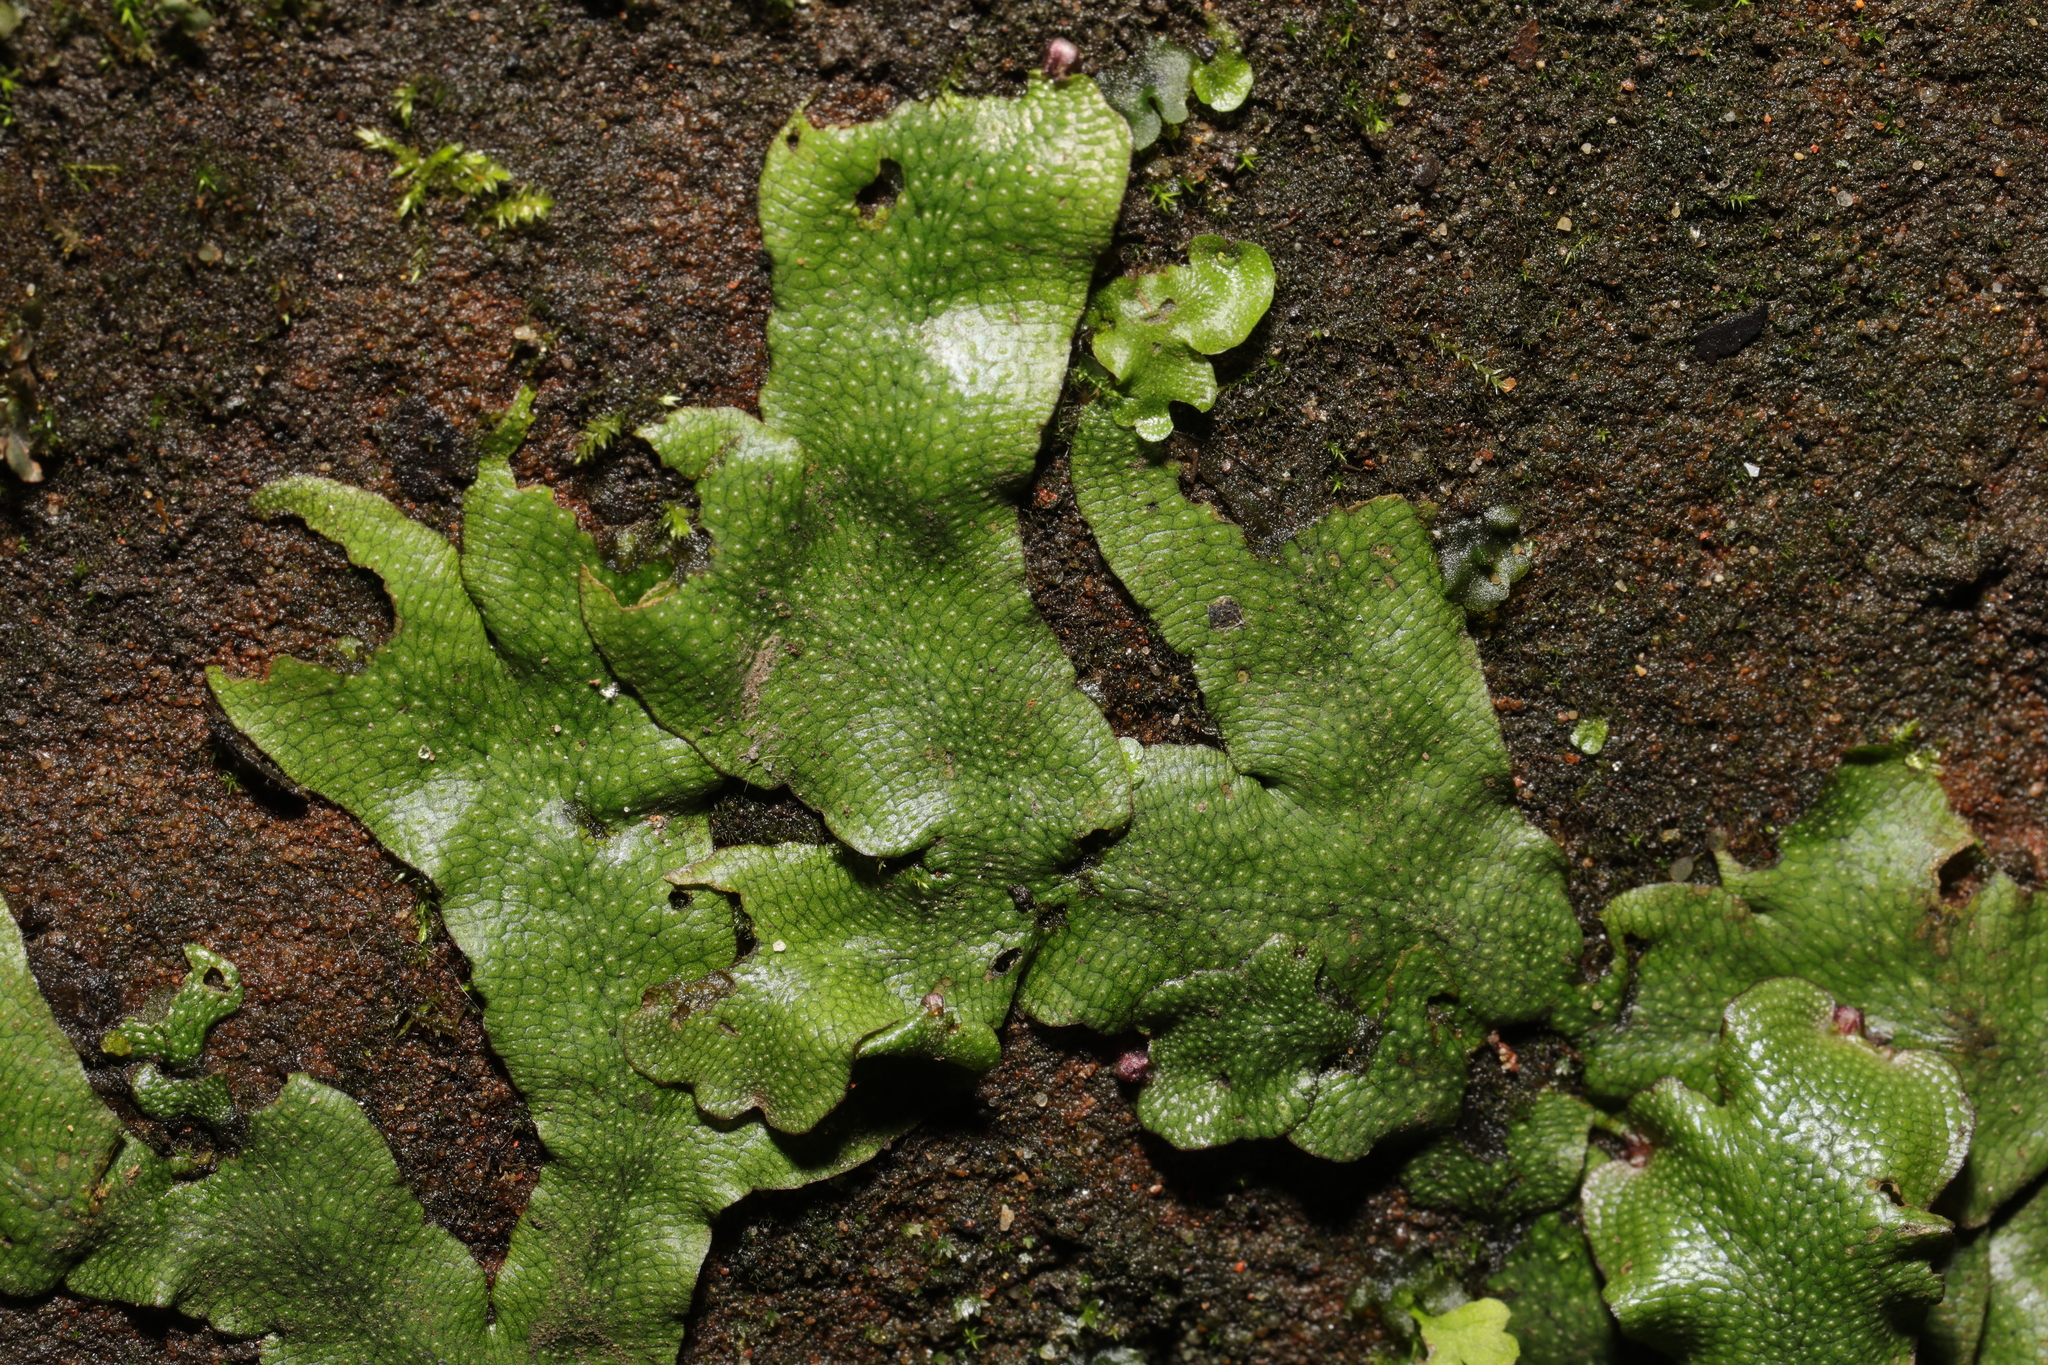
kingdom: Plantae
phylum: Marchantiophyta
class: Marchantiopsida
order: Marchantiales
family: Conocephalaceae
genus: Conocephalum
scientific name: Conocephalum conicum
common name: Great scented liverwort
